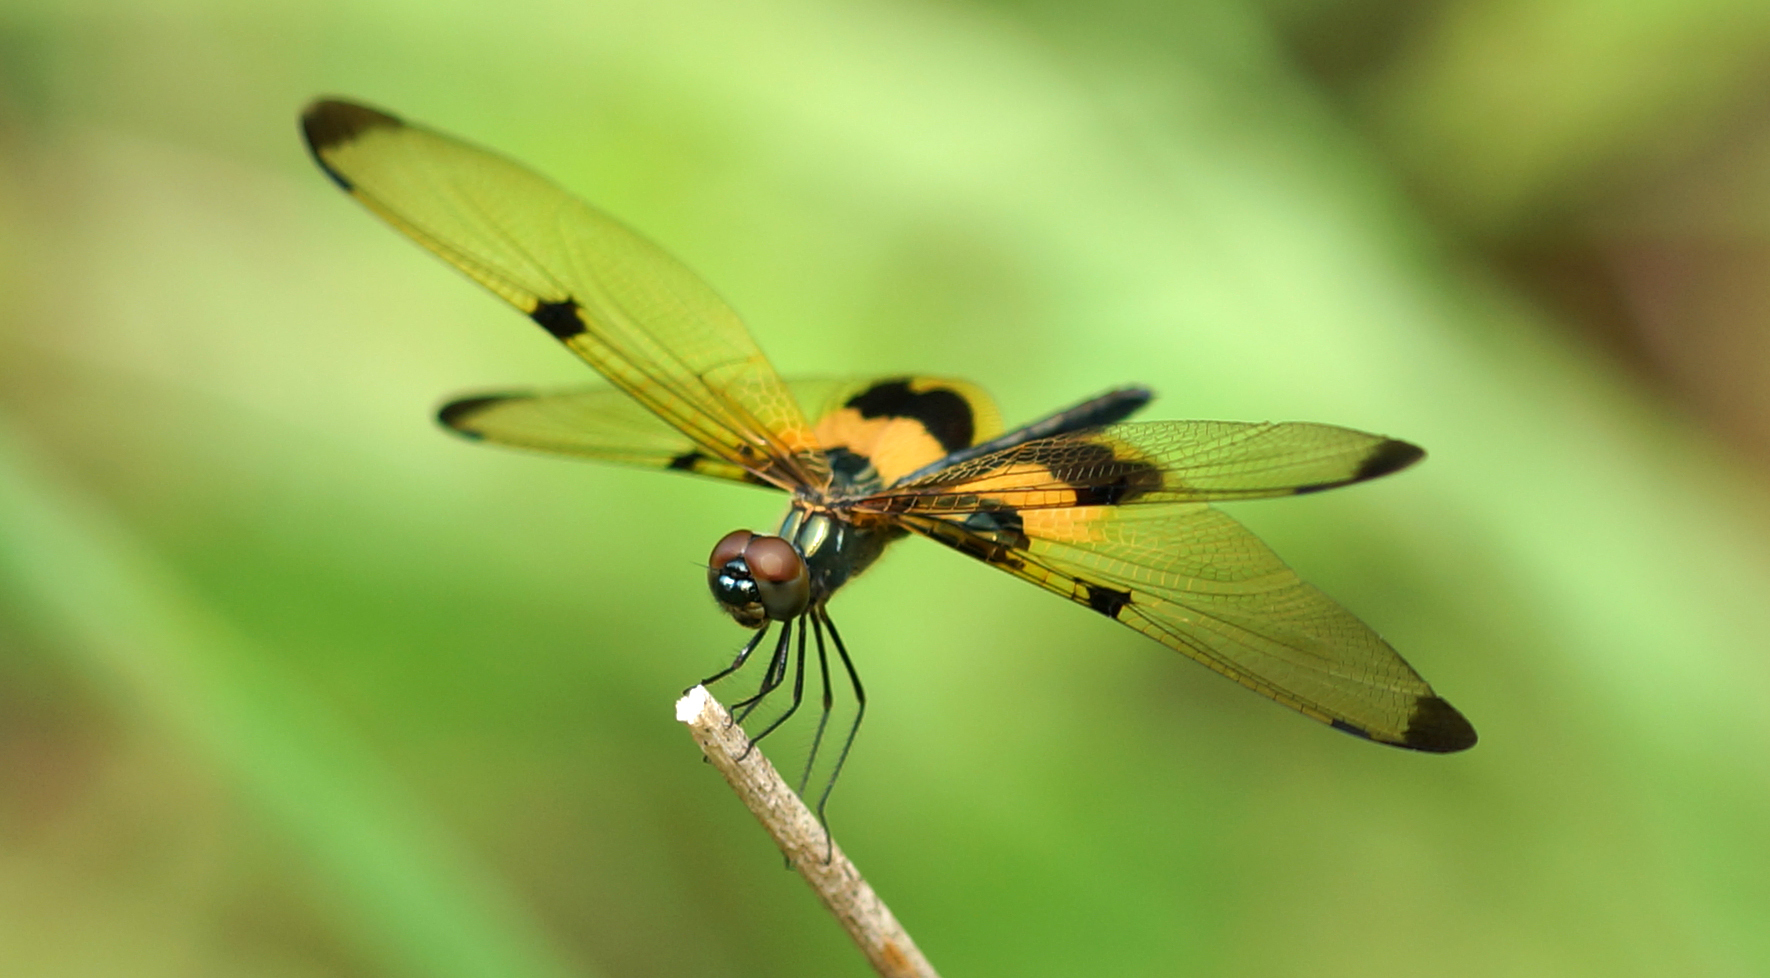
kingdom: Animalia
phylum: Arthropoda
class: Insecta
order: Odonata
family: Libellulidae
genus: Rhyothemis
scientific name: Rhyothemis phyllis
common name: Yellow-barred flutterer
